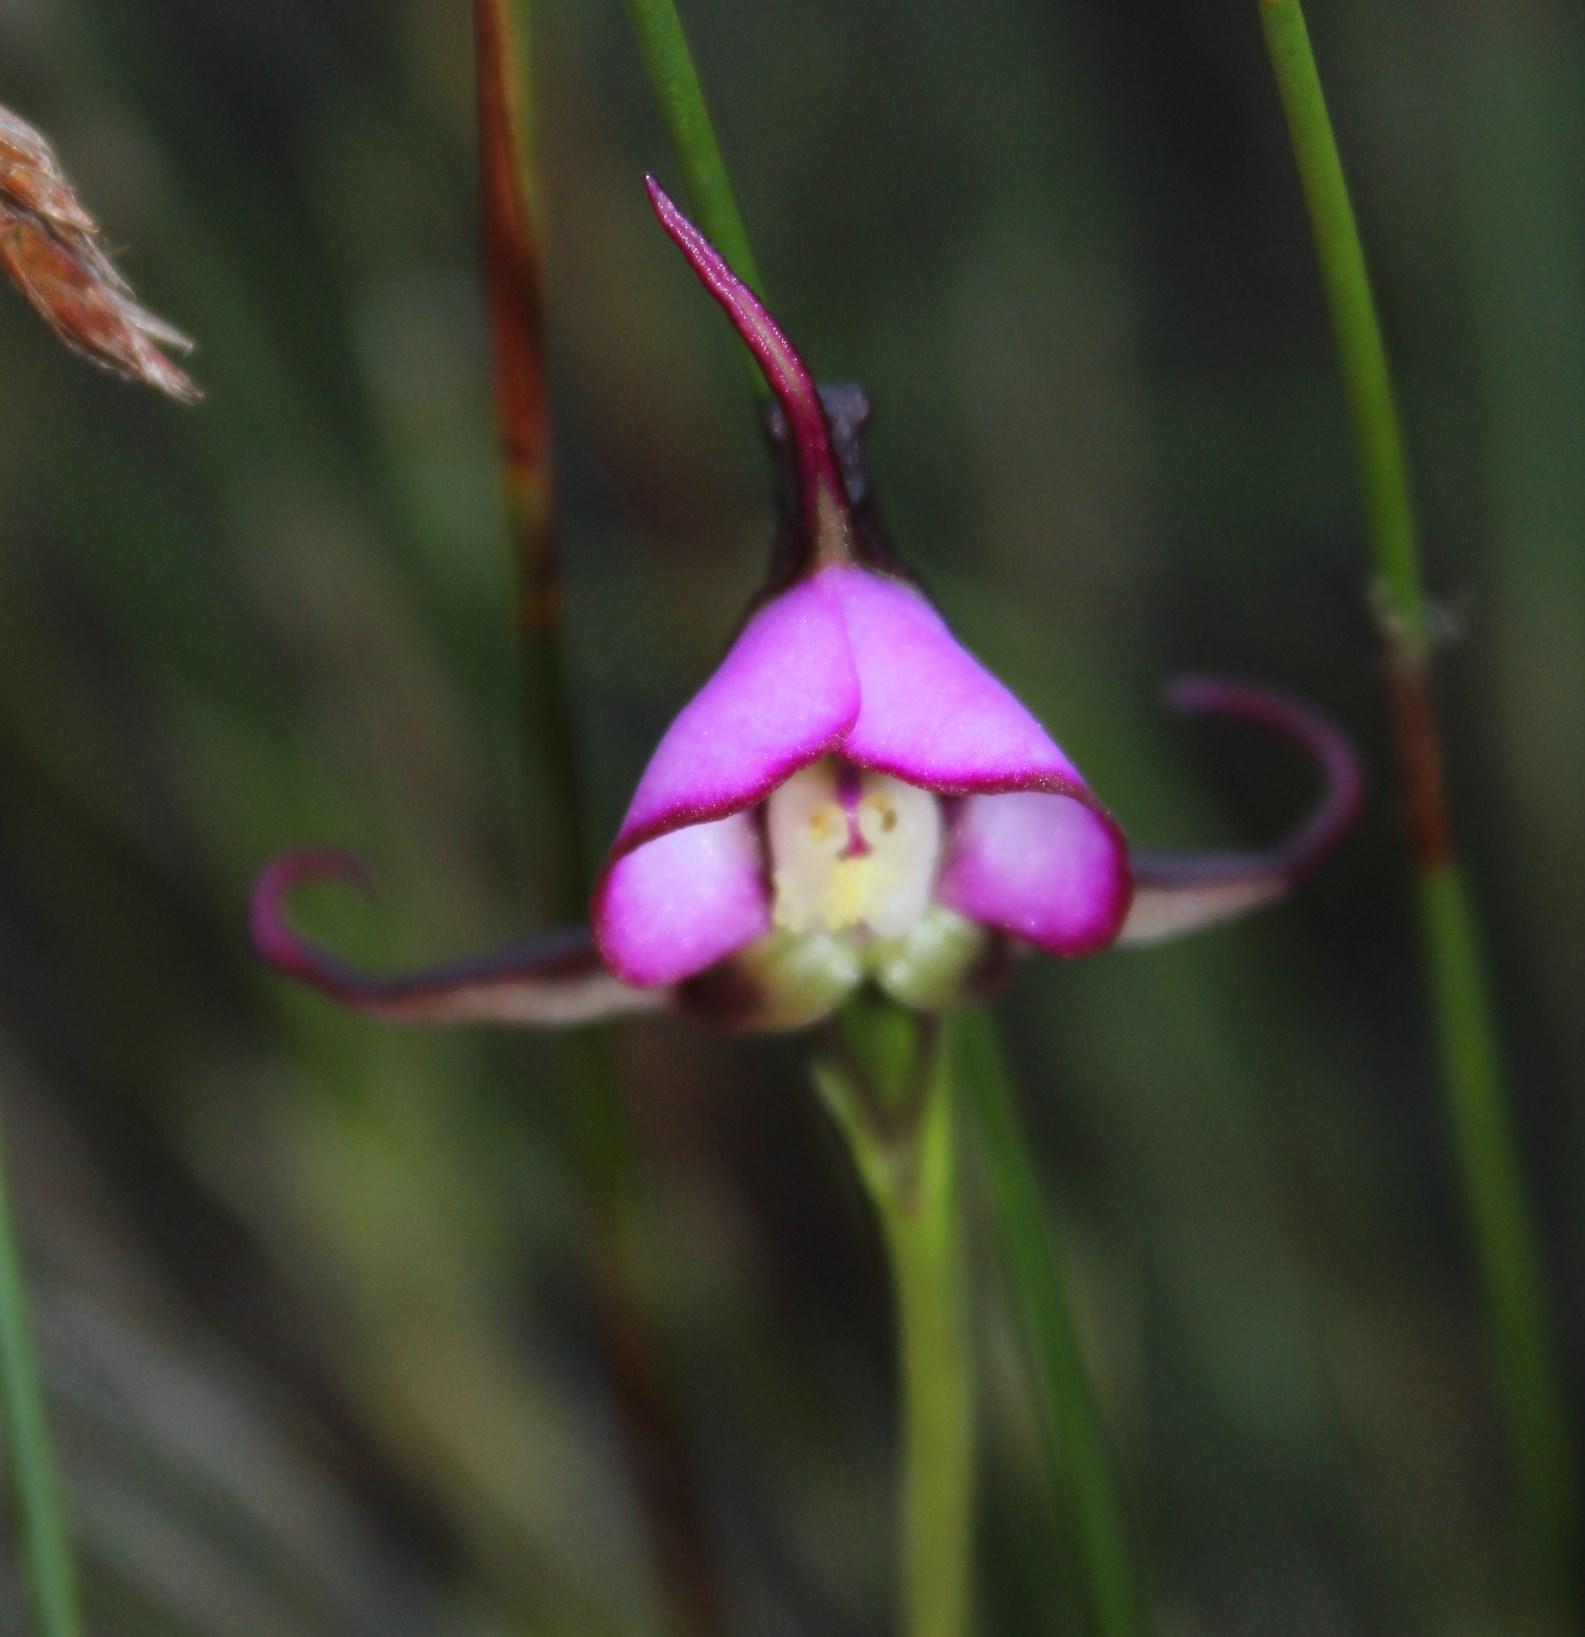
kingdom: Plantae
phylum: Tracheophyta
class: Liliopsida
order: Asparagales
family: Orchidaceae
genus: Disperis
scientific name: Disperis capensis
